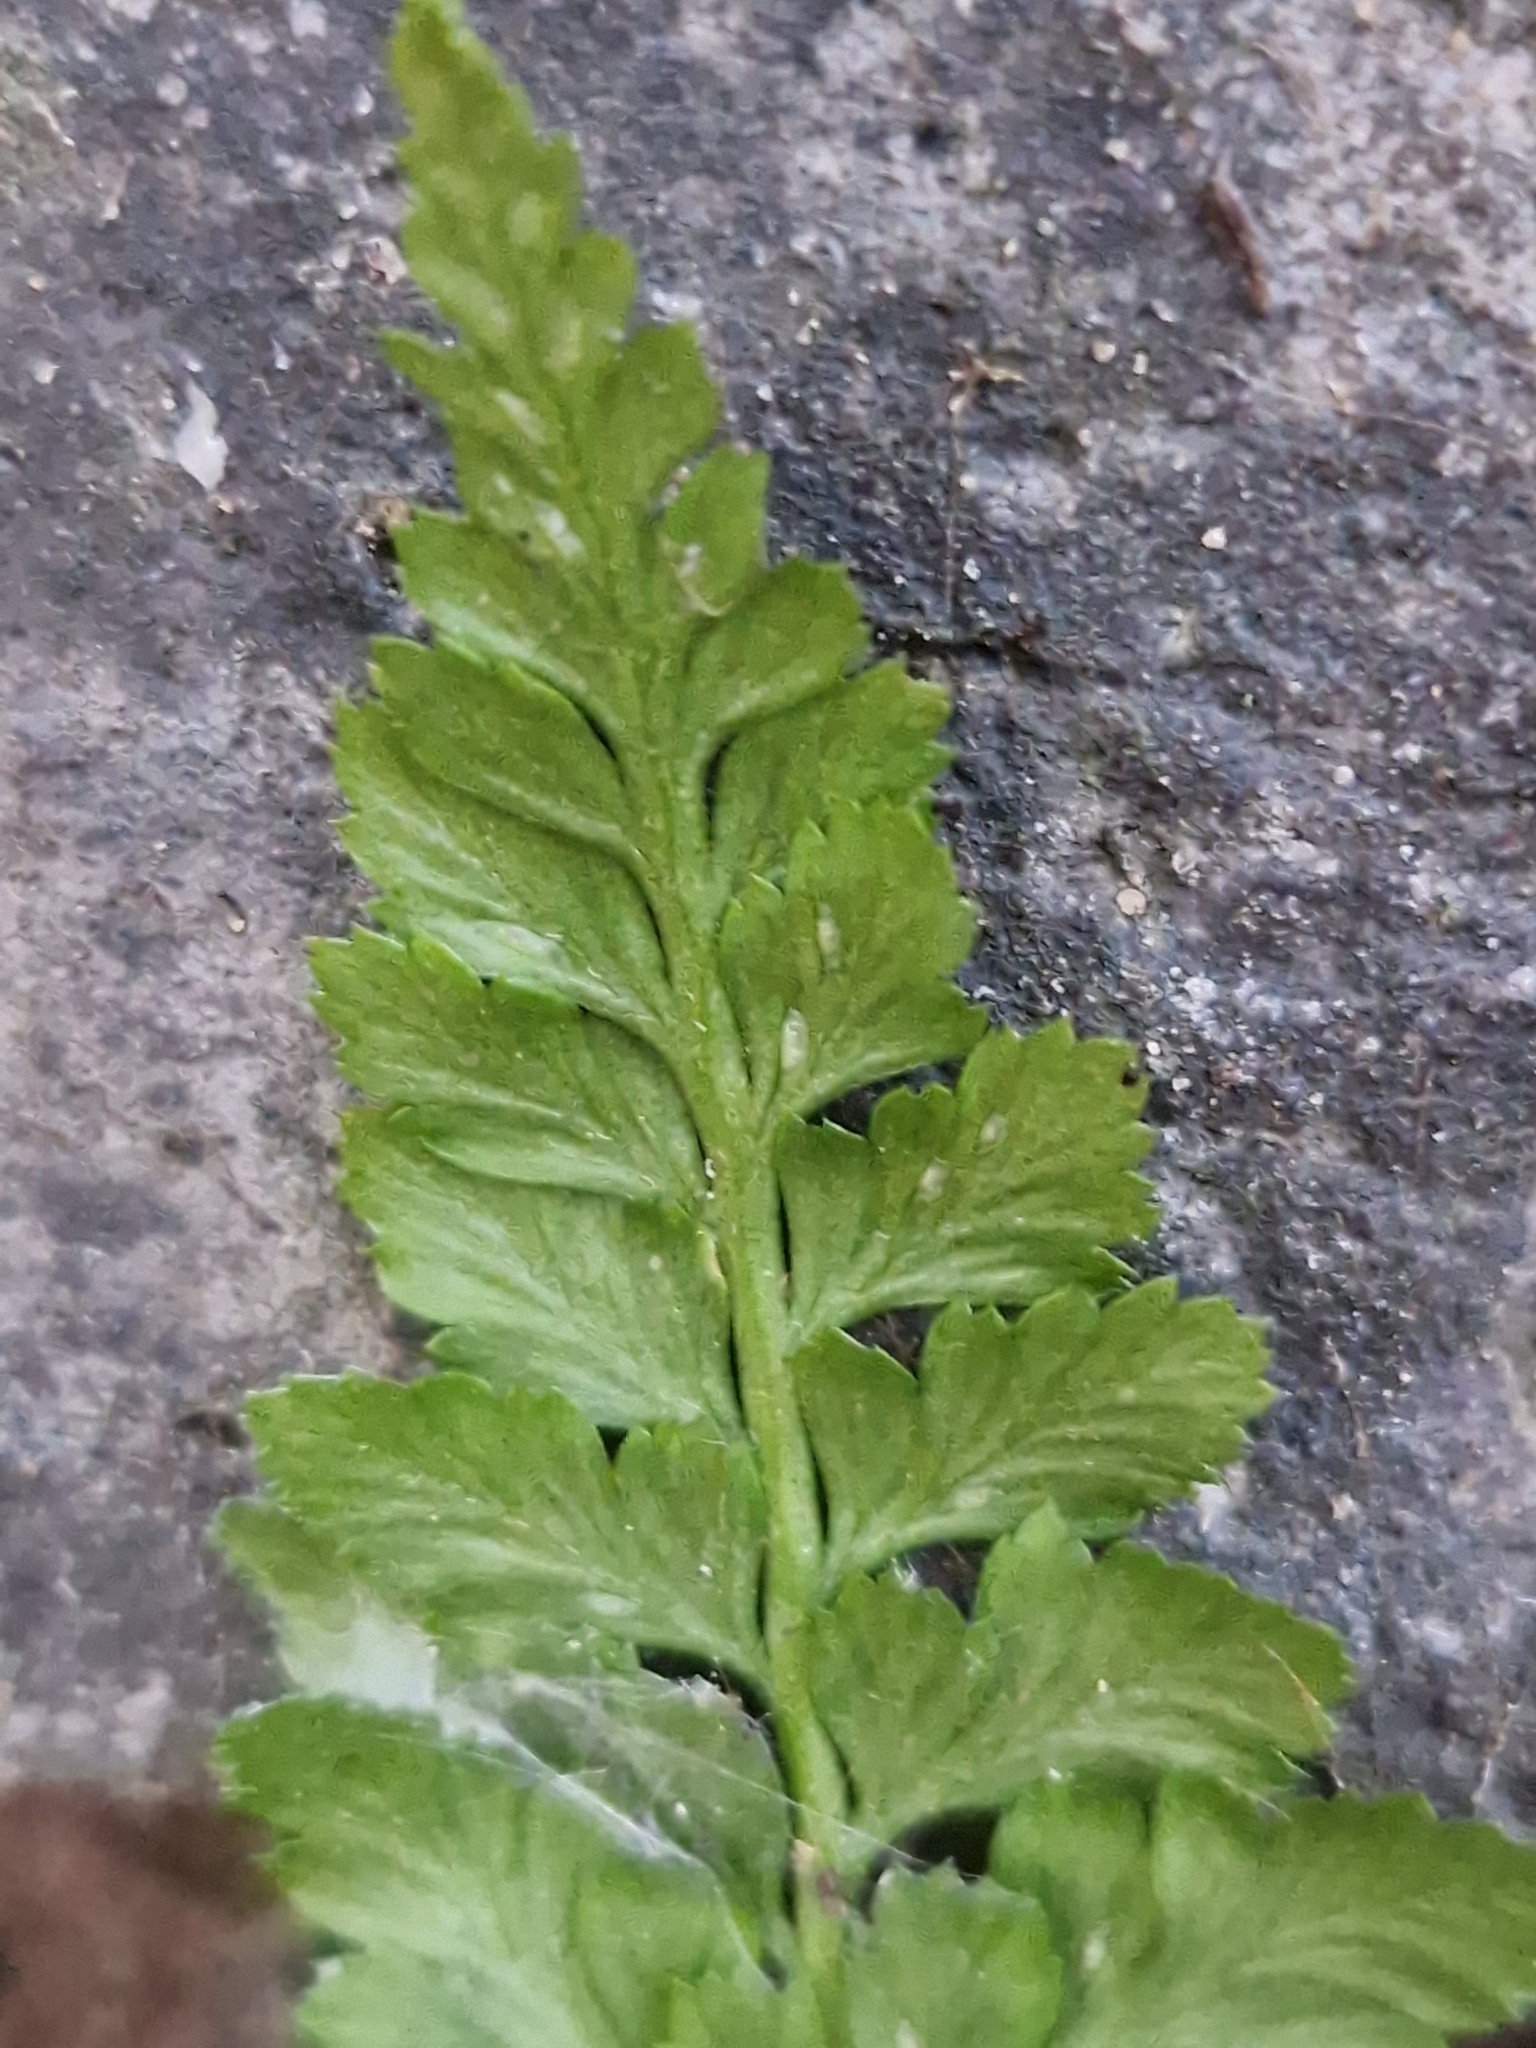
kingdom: Plantae
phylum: Tracheophyta
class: Polypodiopsida
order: Polypodiales
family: Aspleniaceae
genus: Asplenium
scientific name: Asplenium adiantum-nigrum
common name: Black spleenwort
